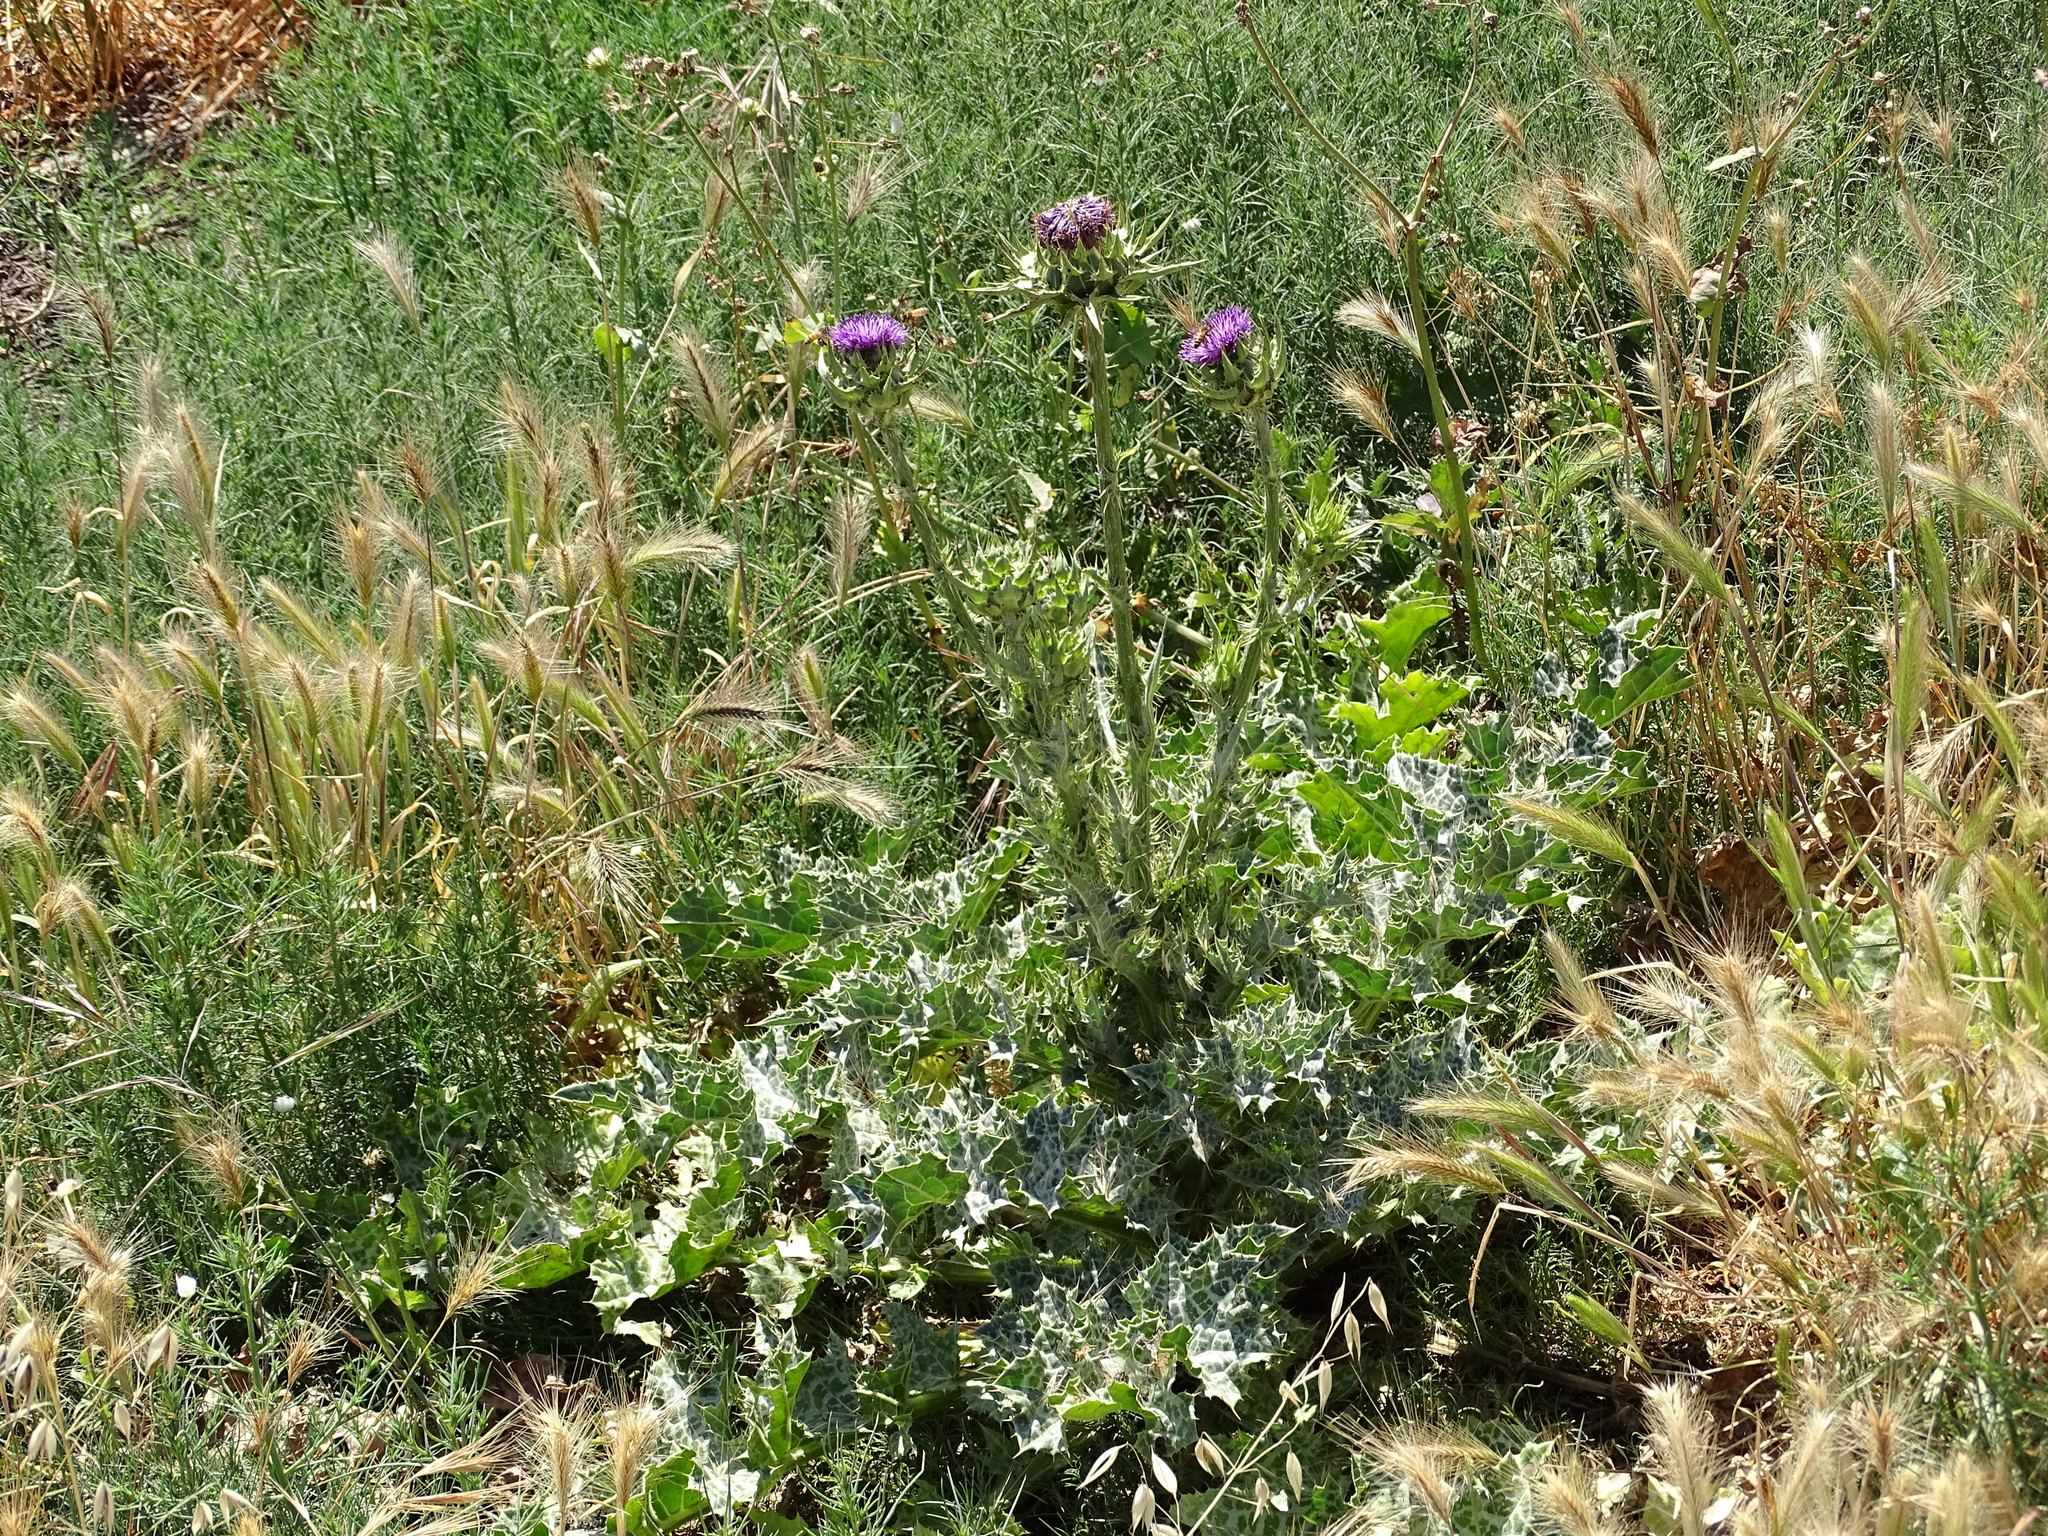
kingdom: Plantae
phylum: Tracheophyta
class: Magnoliopsida
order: Asterales
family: Asteraceae
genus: Silybum
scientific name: Silybum marianum
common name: Milk thistle
